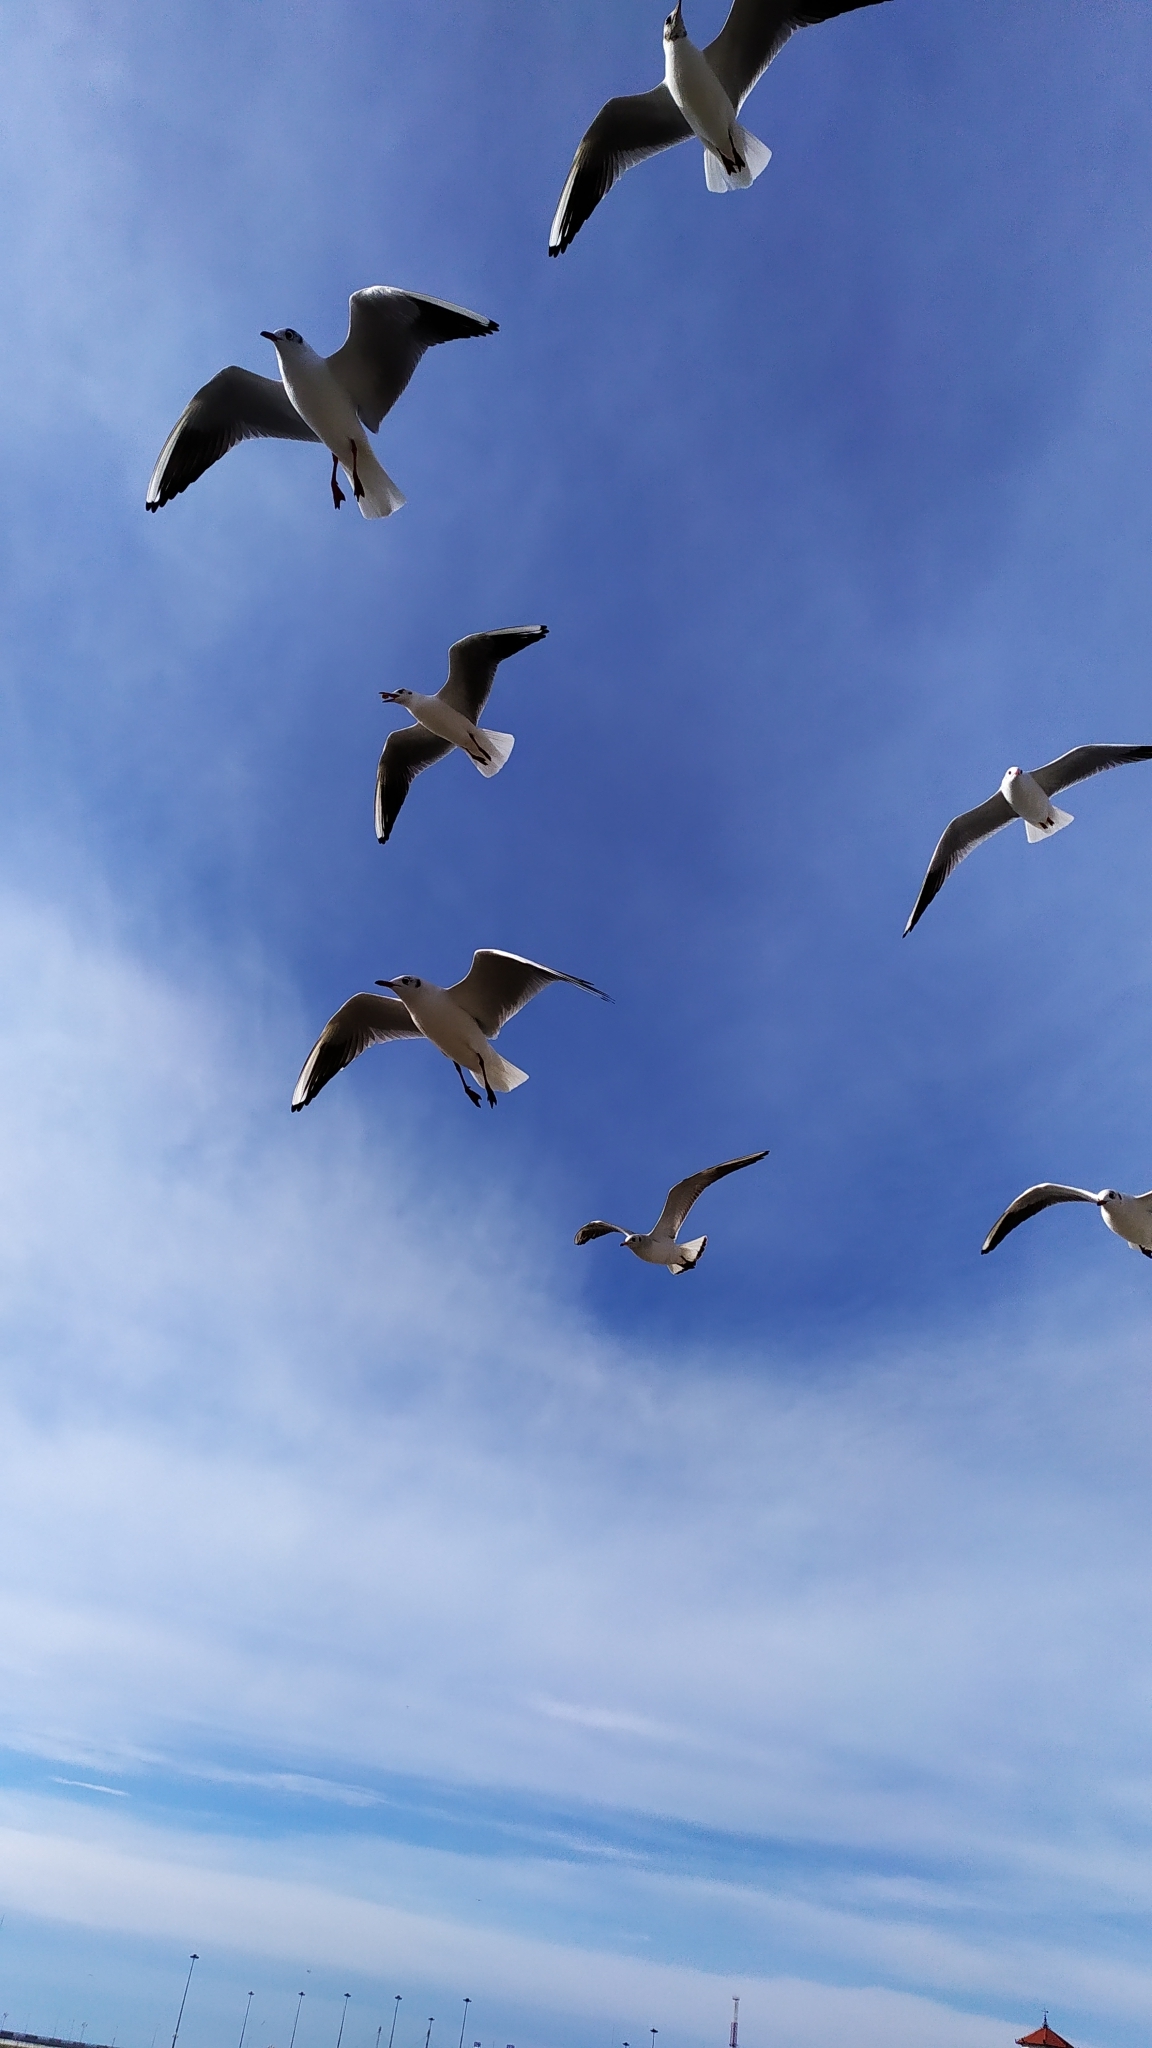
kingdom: Animalia
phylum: Chordata
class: Aves
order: Charadriiformes
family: Laridae
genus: Chroicocephalus
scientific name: Chroicocephalus ridibundus
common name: Black-headed gull
